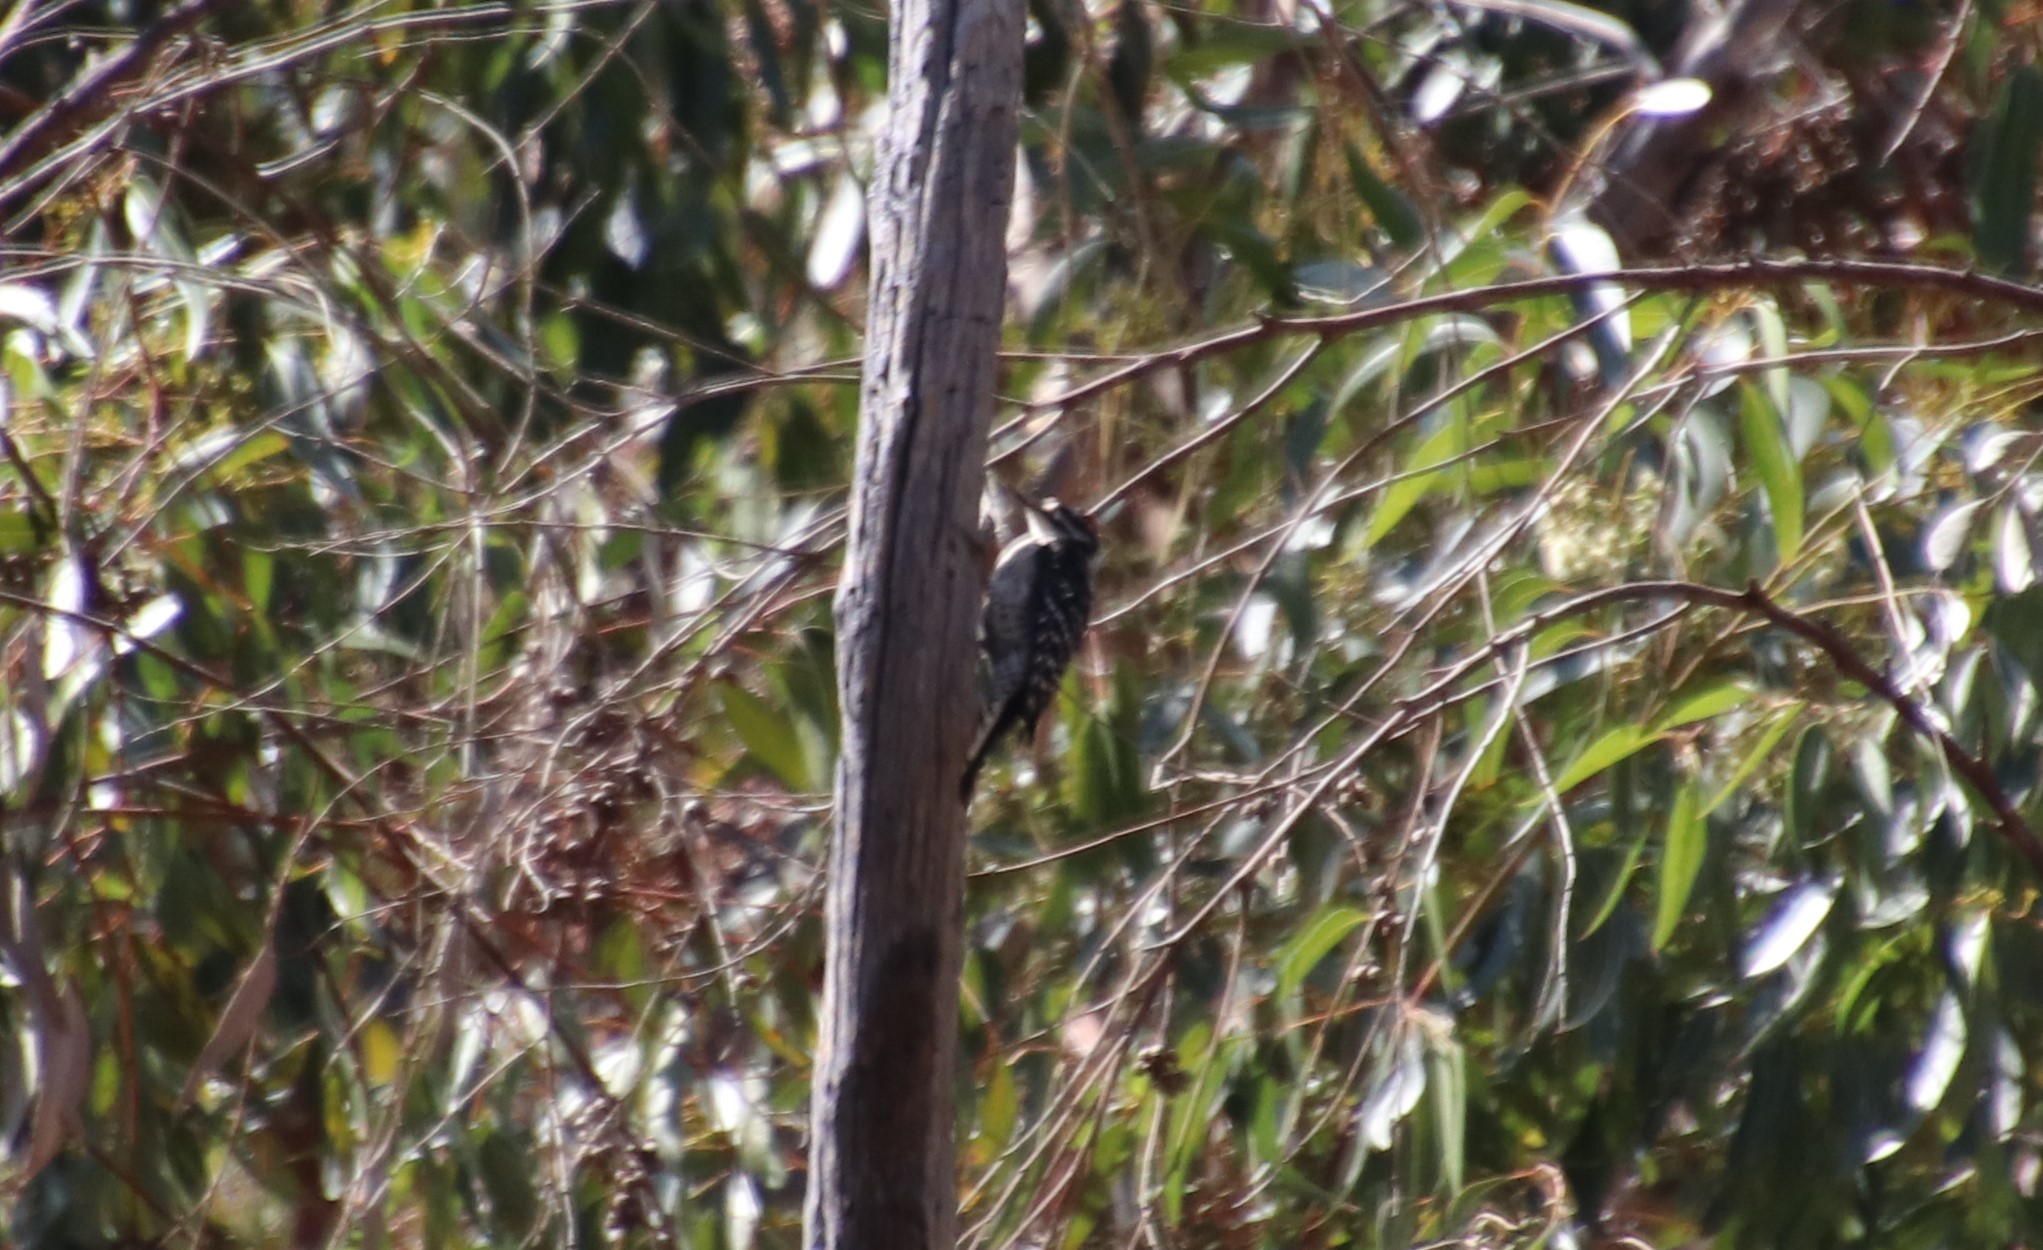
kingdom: Animalia
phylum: Chordata
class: Aves
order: Piciformes
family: Picidae
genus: Dryobates
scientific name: Dryobates nuttallii
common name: Nuttall's woodpecker
